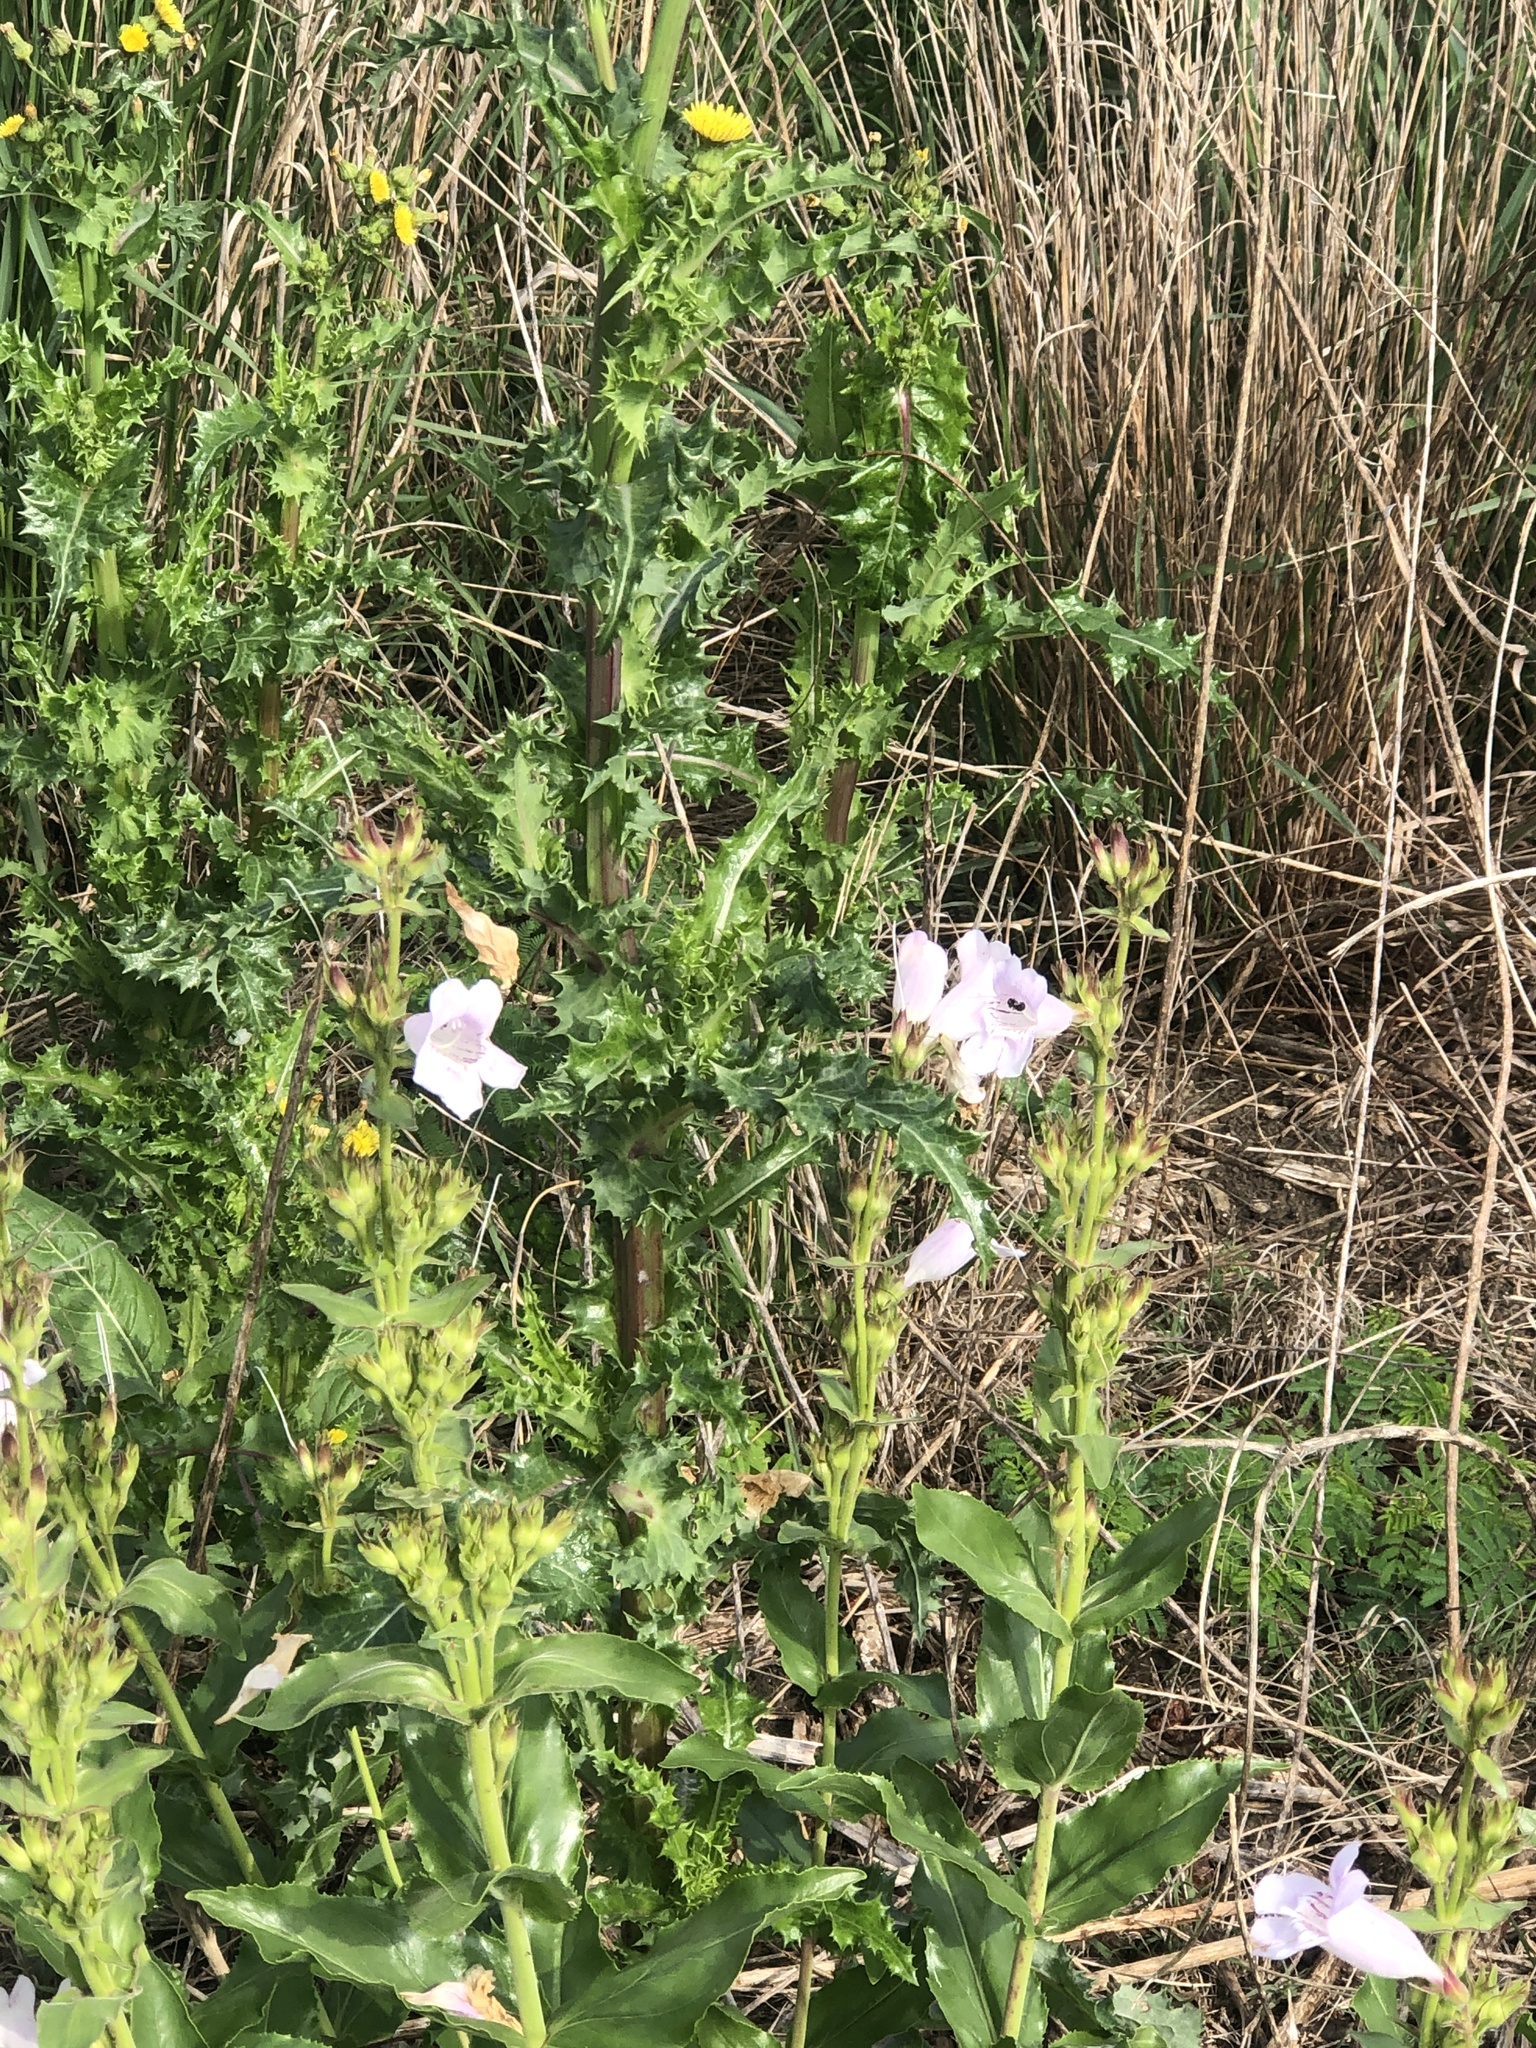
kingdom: Plantae
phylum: Tracheophyta
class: Magnoliopsida
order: Lamiales
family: Plantaginaceae
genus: Penstemon
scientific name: Penstemon cobaea
